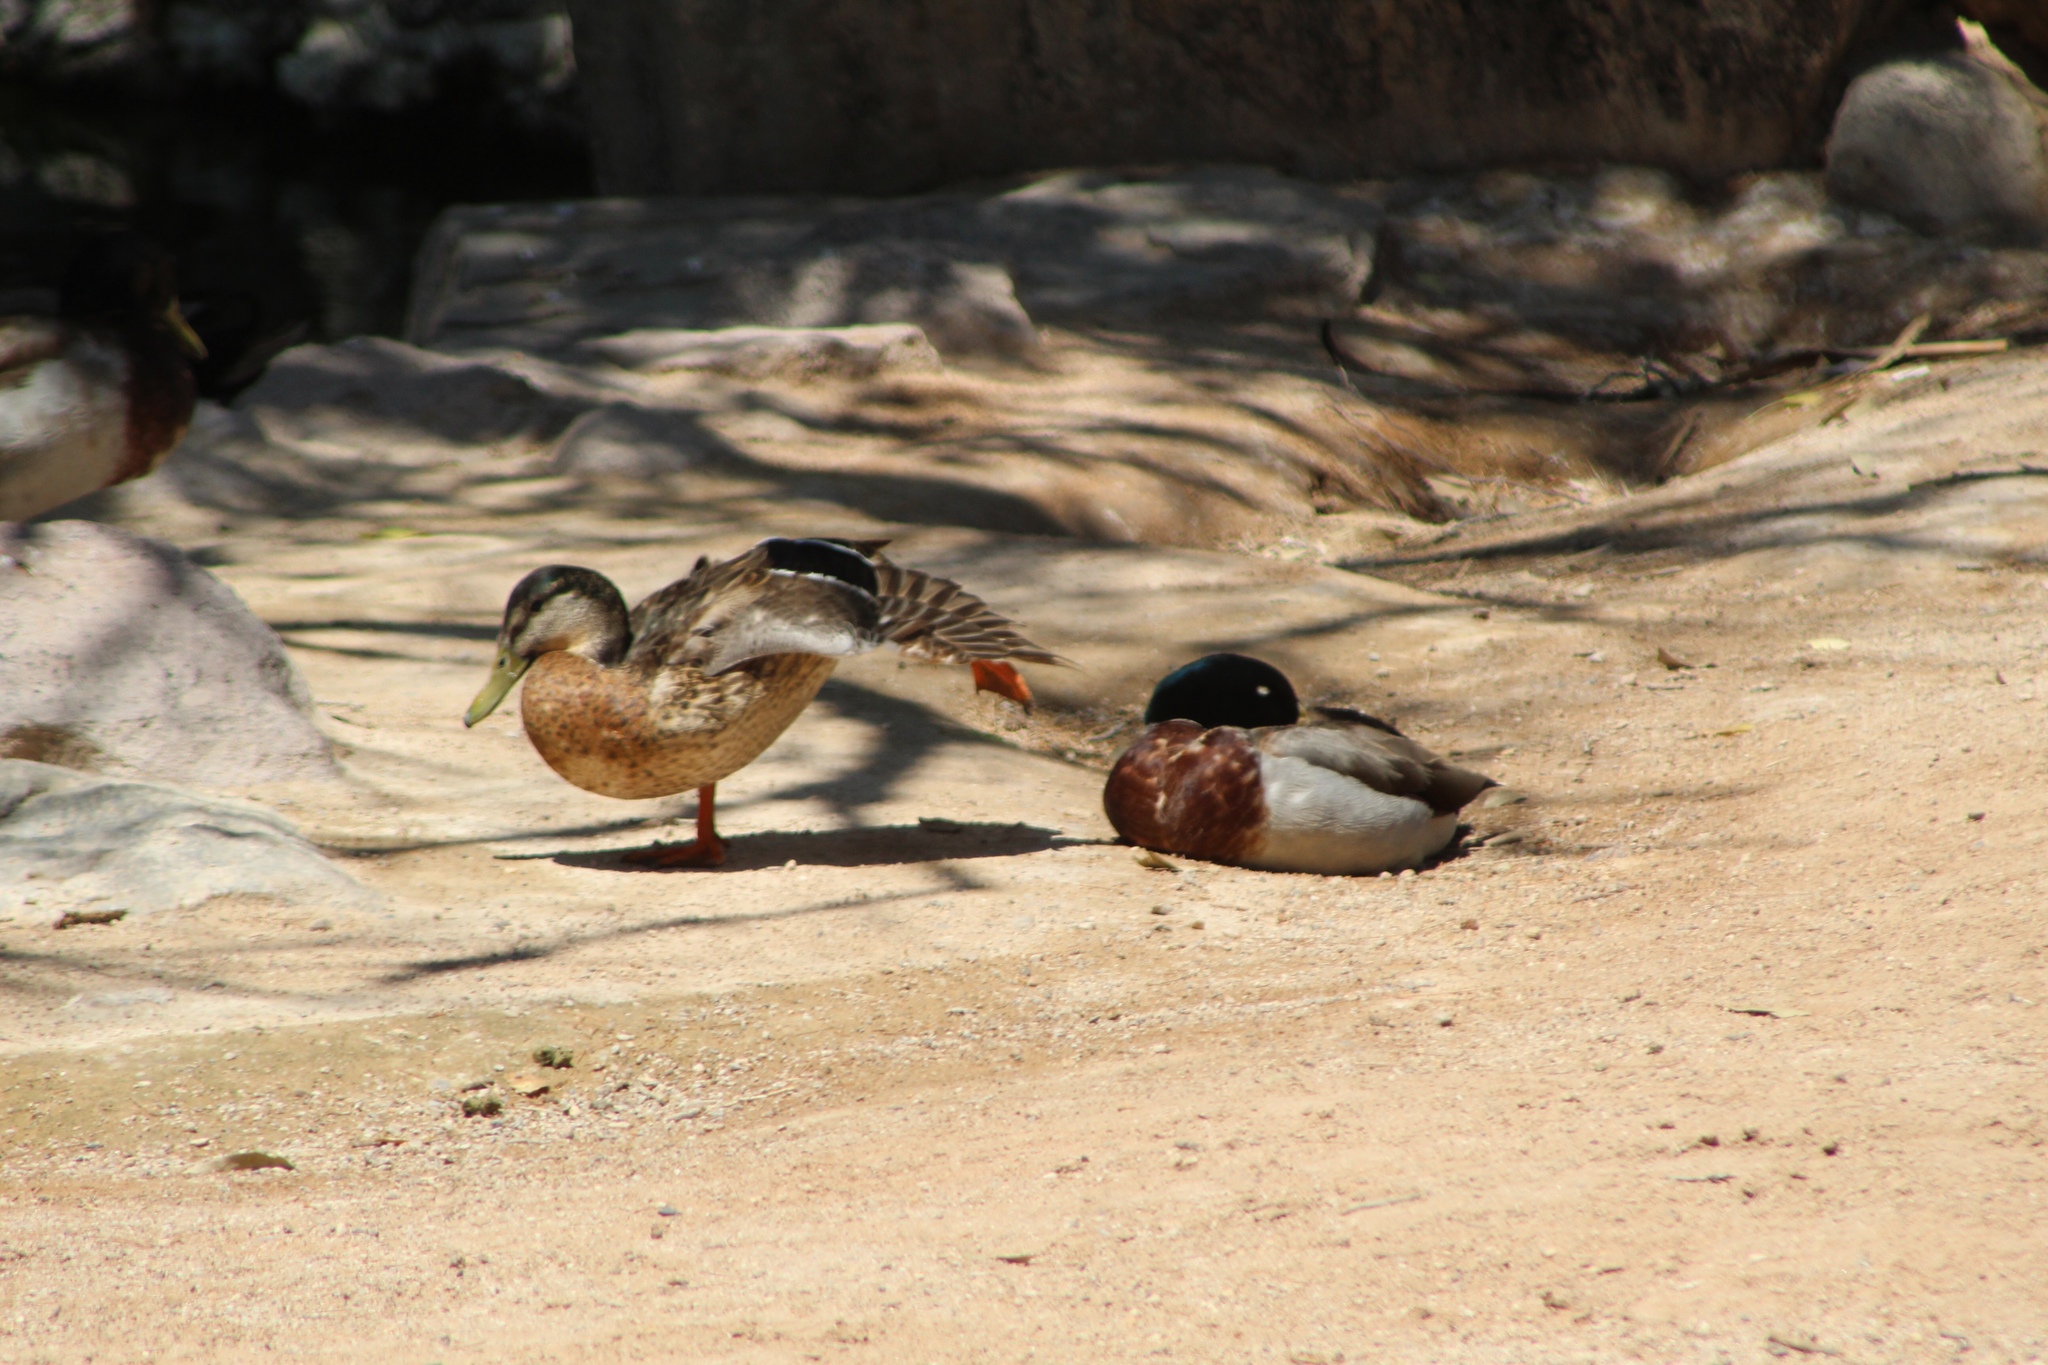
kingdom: Animalia
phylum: Chordata
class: Aves
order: Anseriformes
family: Anatidae
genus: Anas
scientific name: Anas platyrhynchos
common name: Mallard
